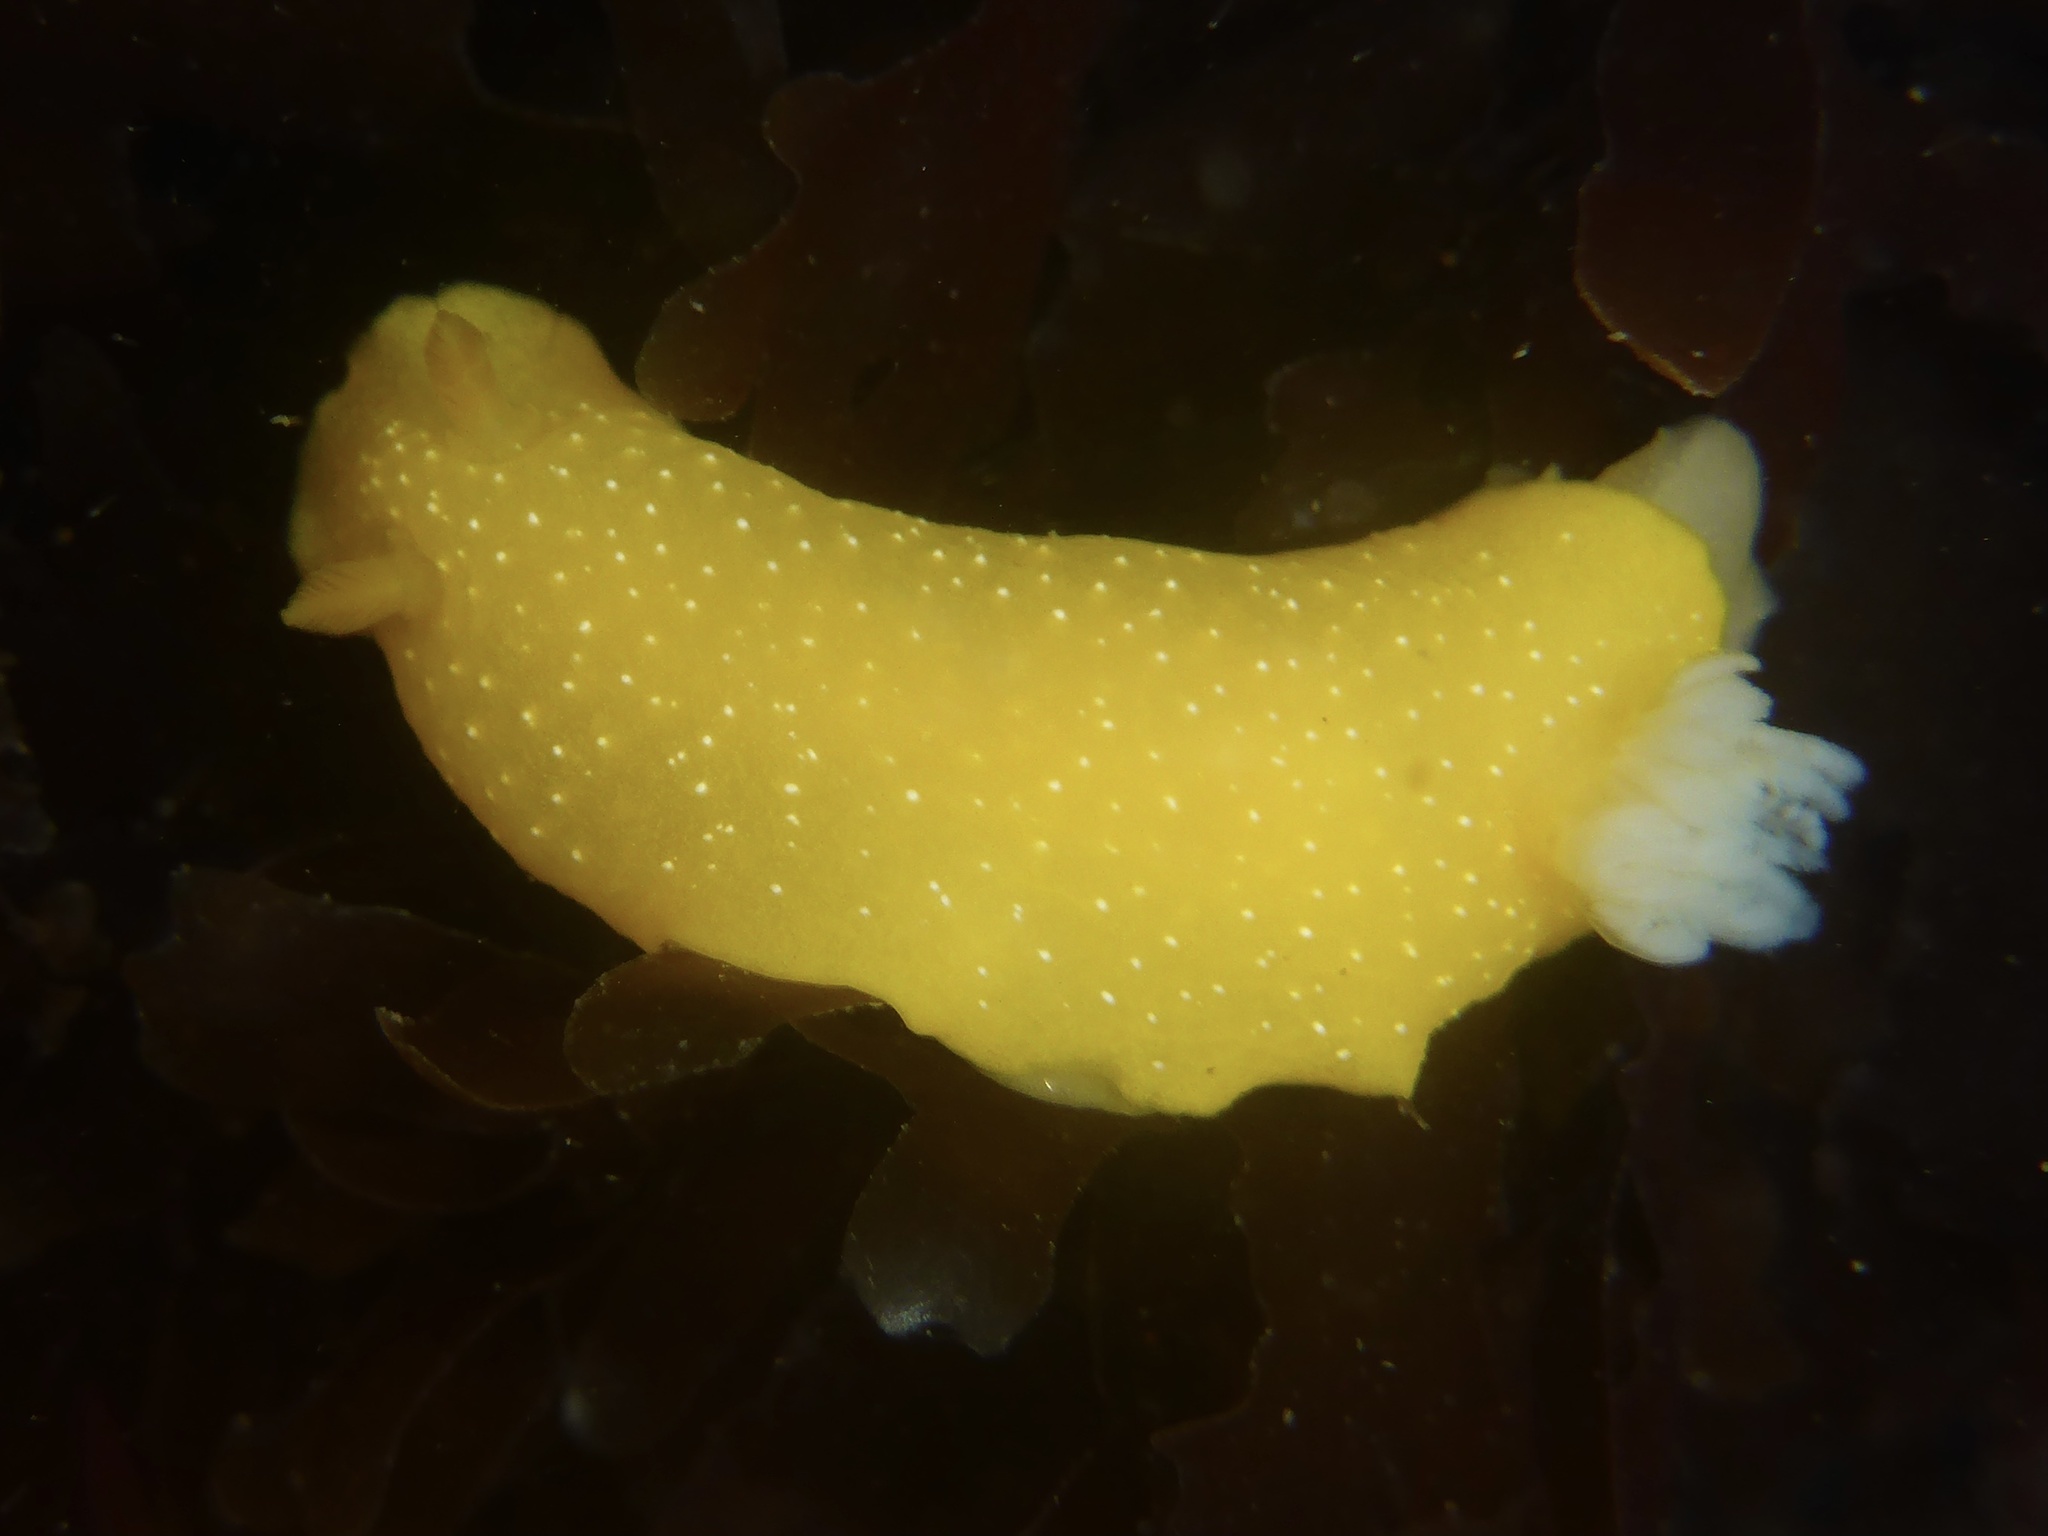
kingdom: Animalia
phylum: Mollusca
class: Gastropoda
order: Nudibranchia
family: Dendrodorididae
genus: Doriopsilla
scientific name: Doriopsilla fulva
